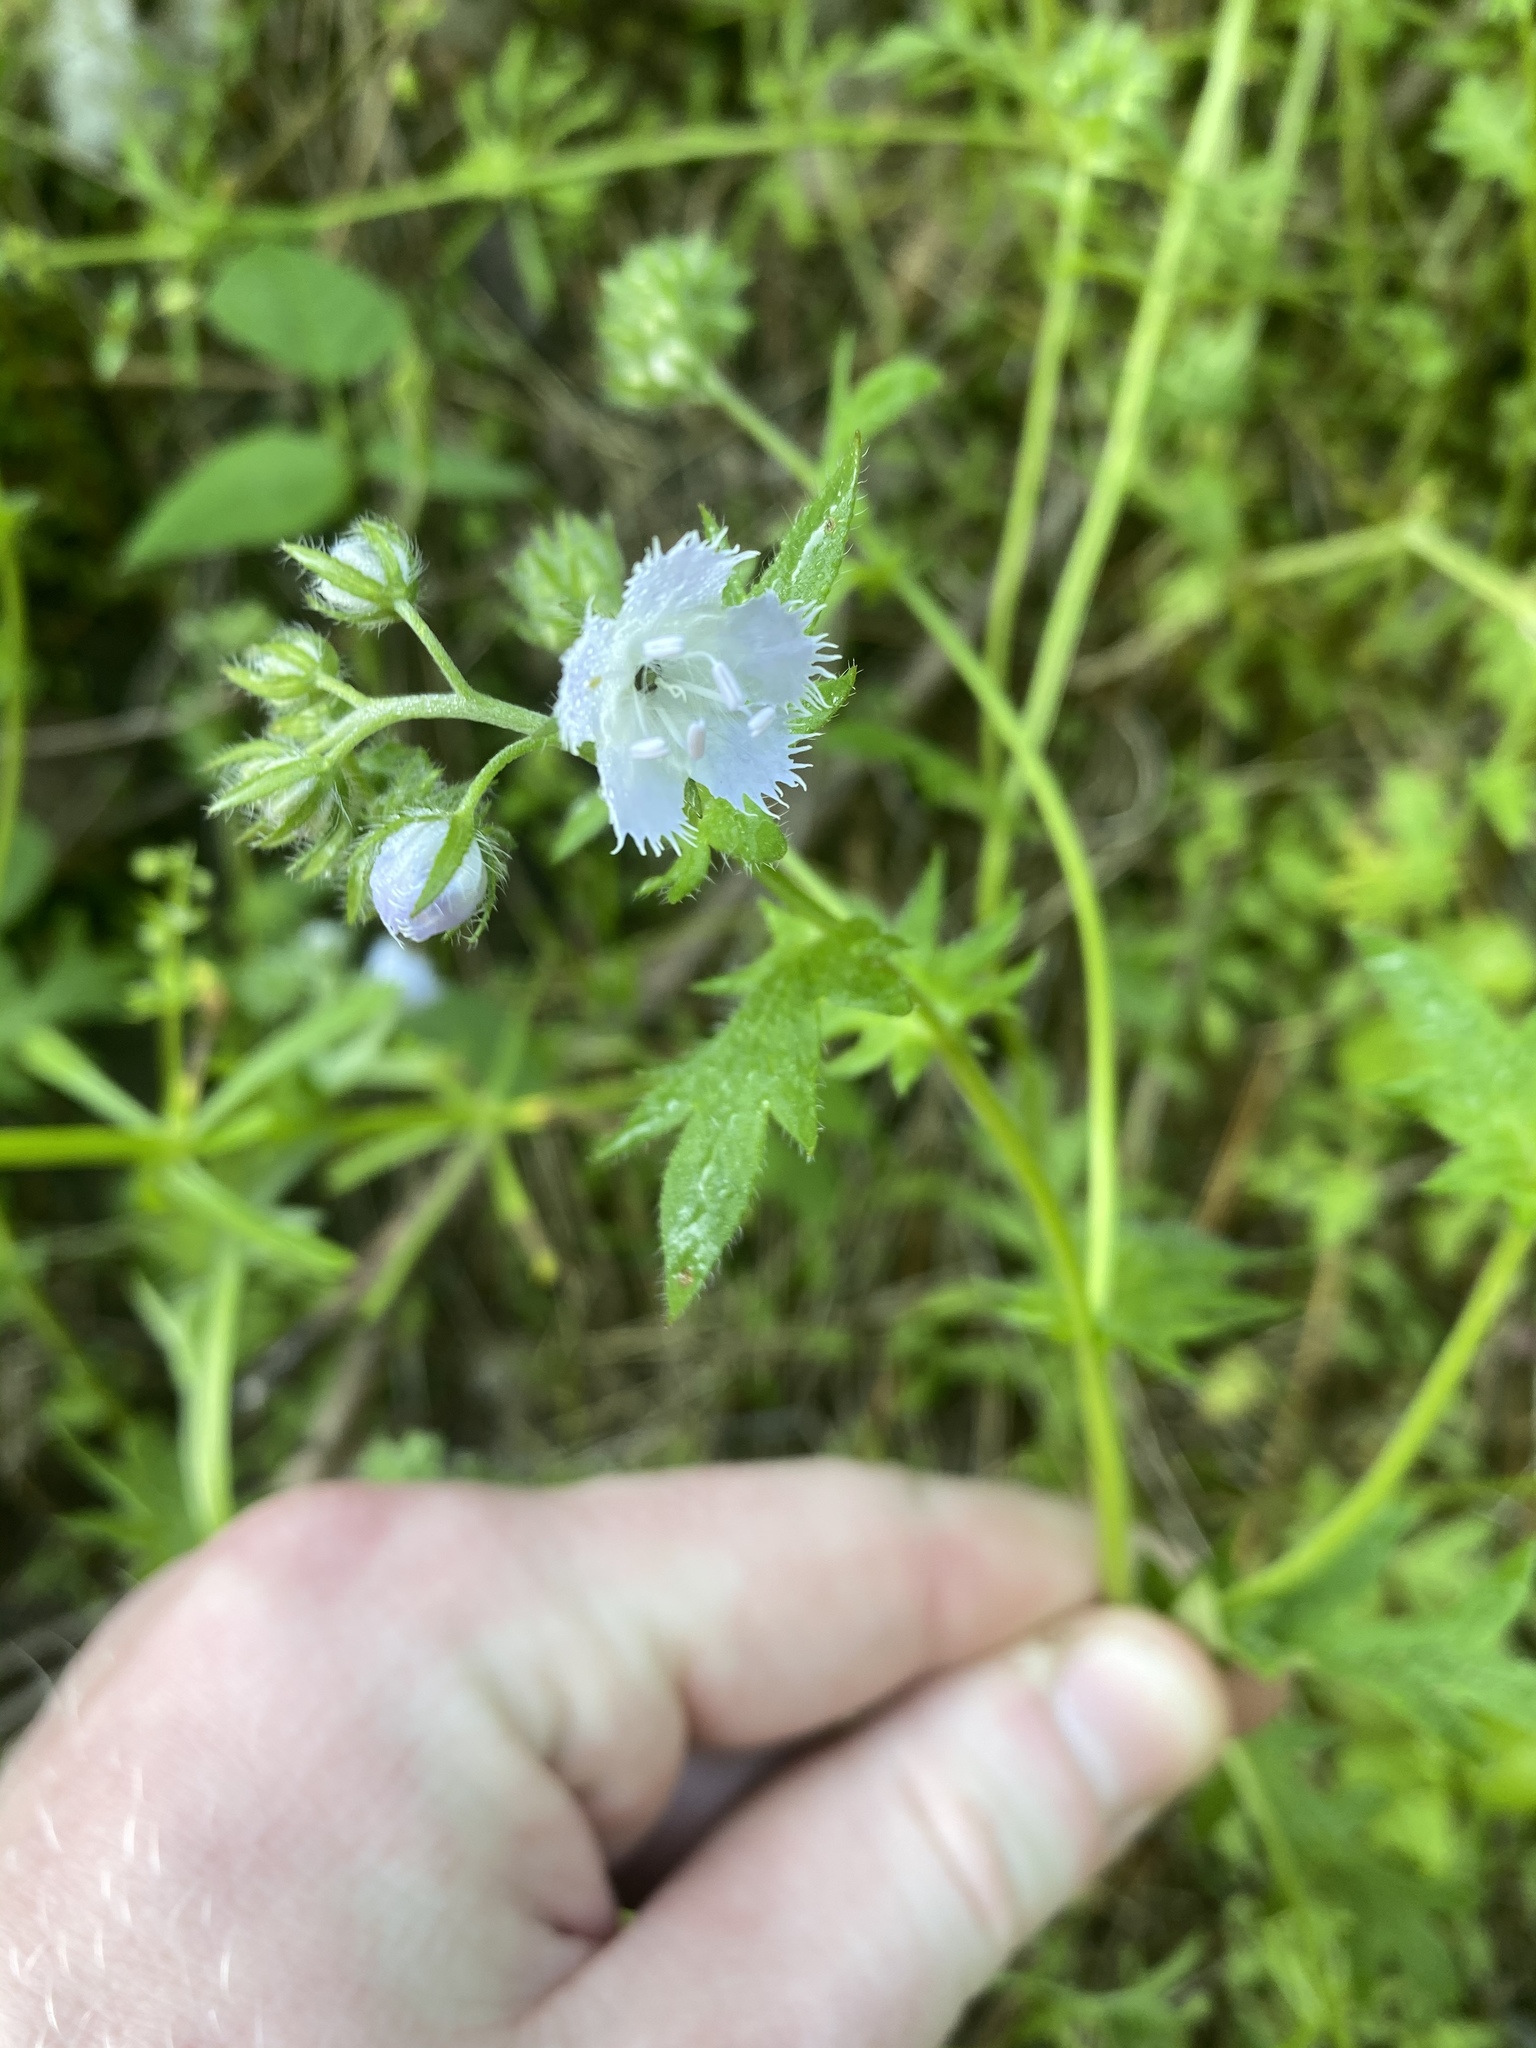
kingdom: Plantae
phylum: Tracheophyta
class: Magnoliopsida
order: Boraginales
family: Hydrophyllaceae
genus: Phacelia
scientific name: Phacelia purshii
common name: Miami-mist
